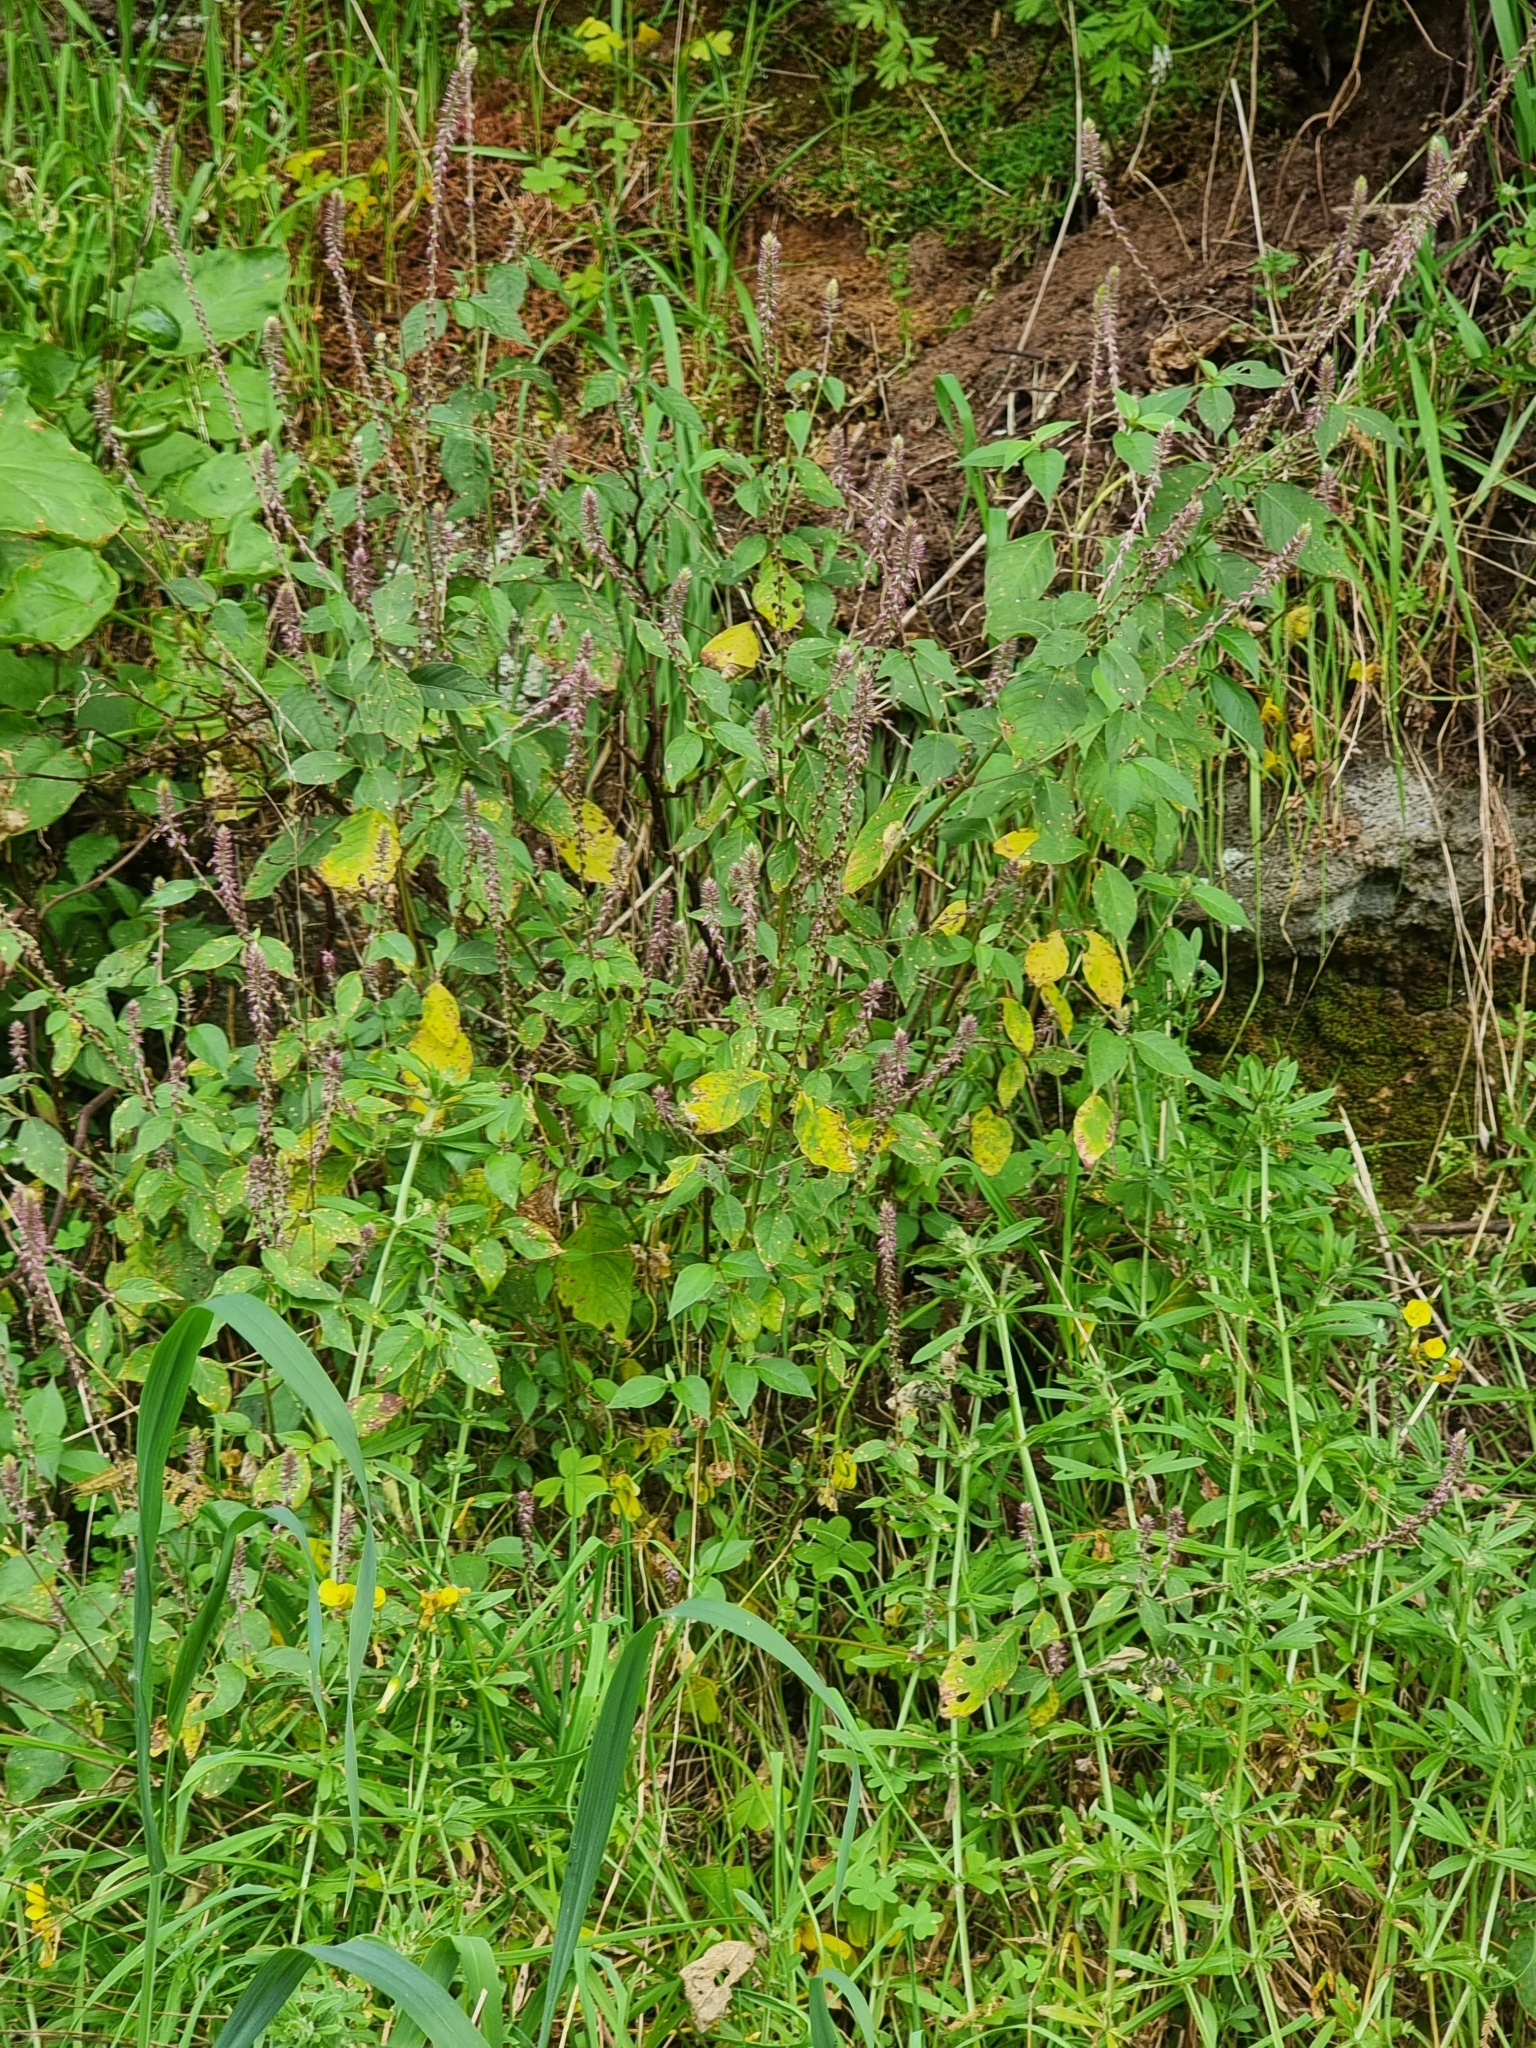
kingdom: Plantae
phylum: Tracheophyta
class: Magnoliopsida
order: Caryophyllales
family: Amaranthaceae
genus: Achyranthes
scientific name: Achyranthes aspera
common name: Devil's horsewhip
